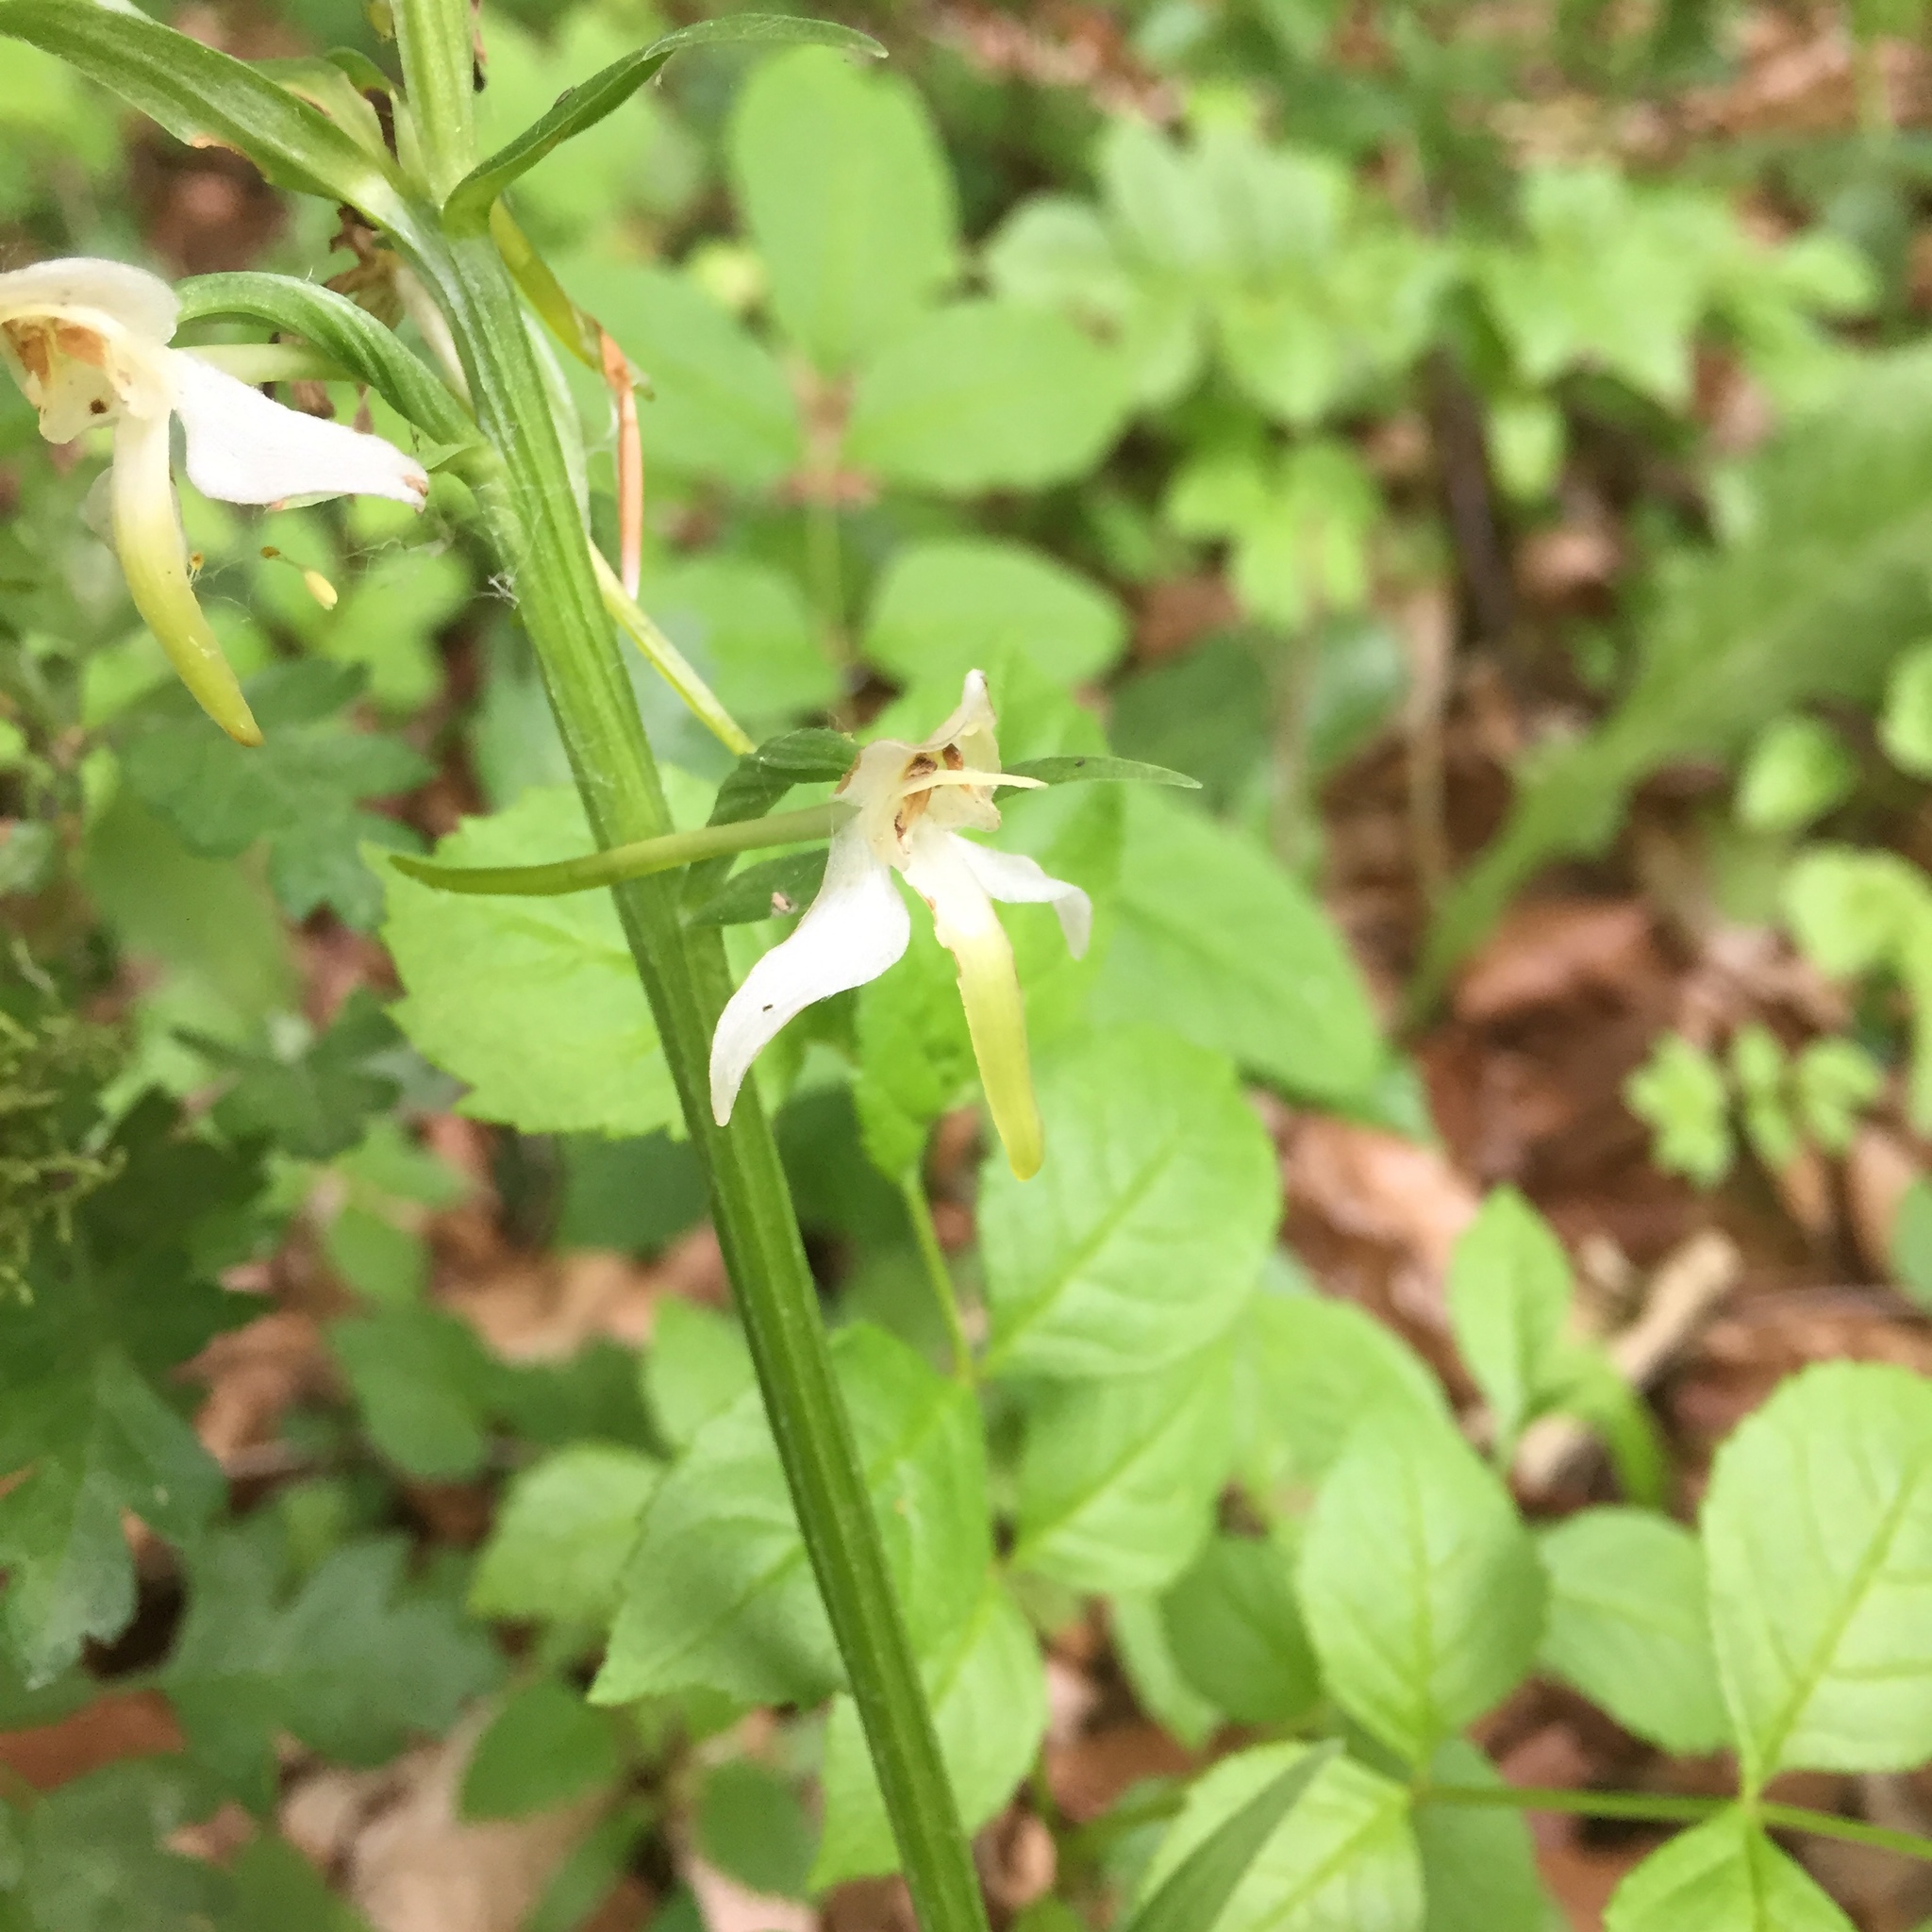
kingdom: Plantae
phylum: Tracheophyta
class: Liliopsida
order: Asparagales
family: Orchidaceae
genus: Platanthera
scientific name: Platanthera chlorantha
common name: Greater butterfly-orchid
